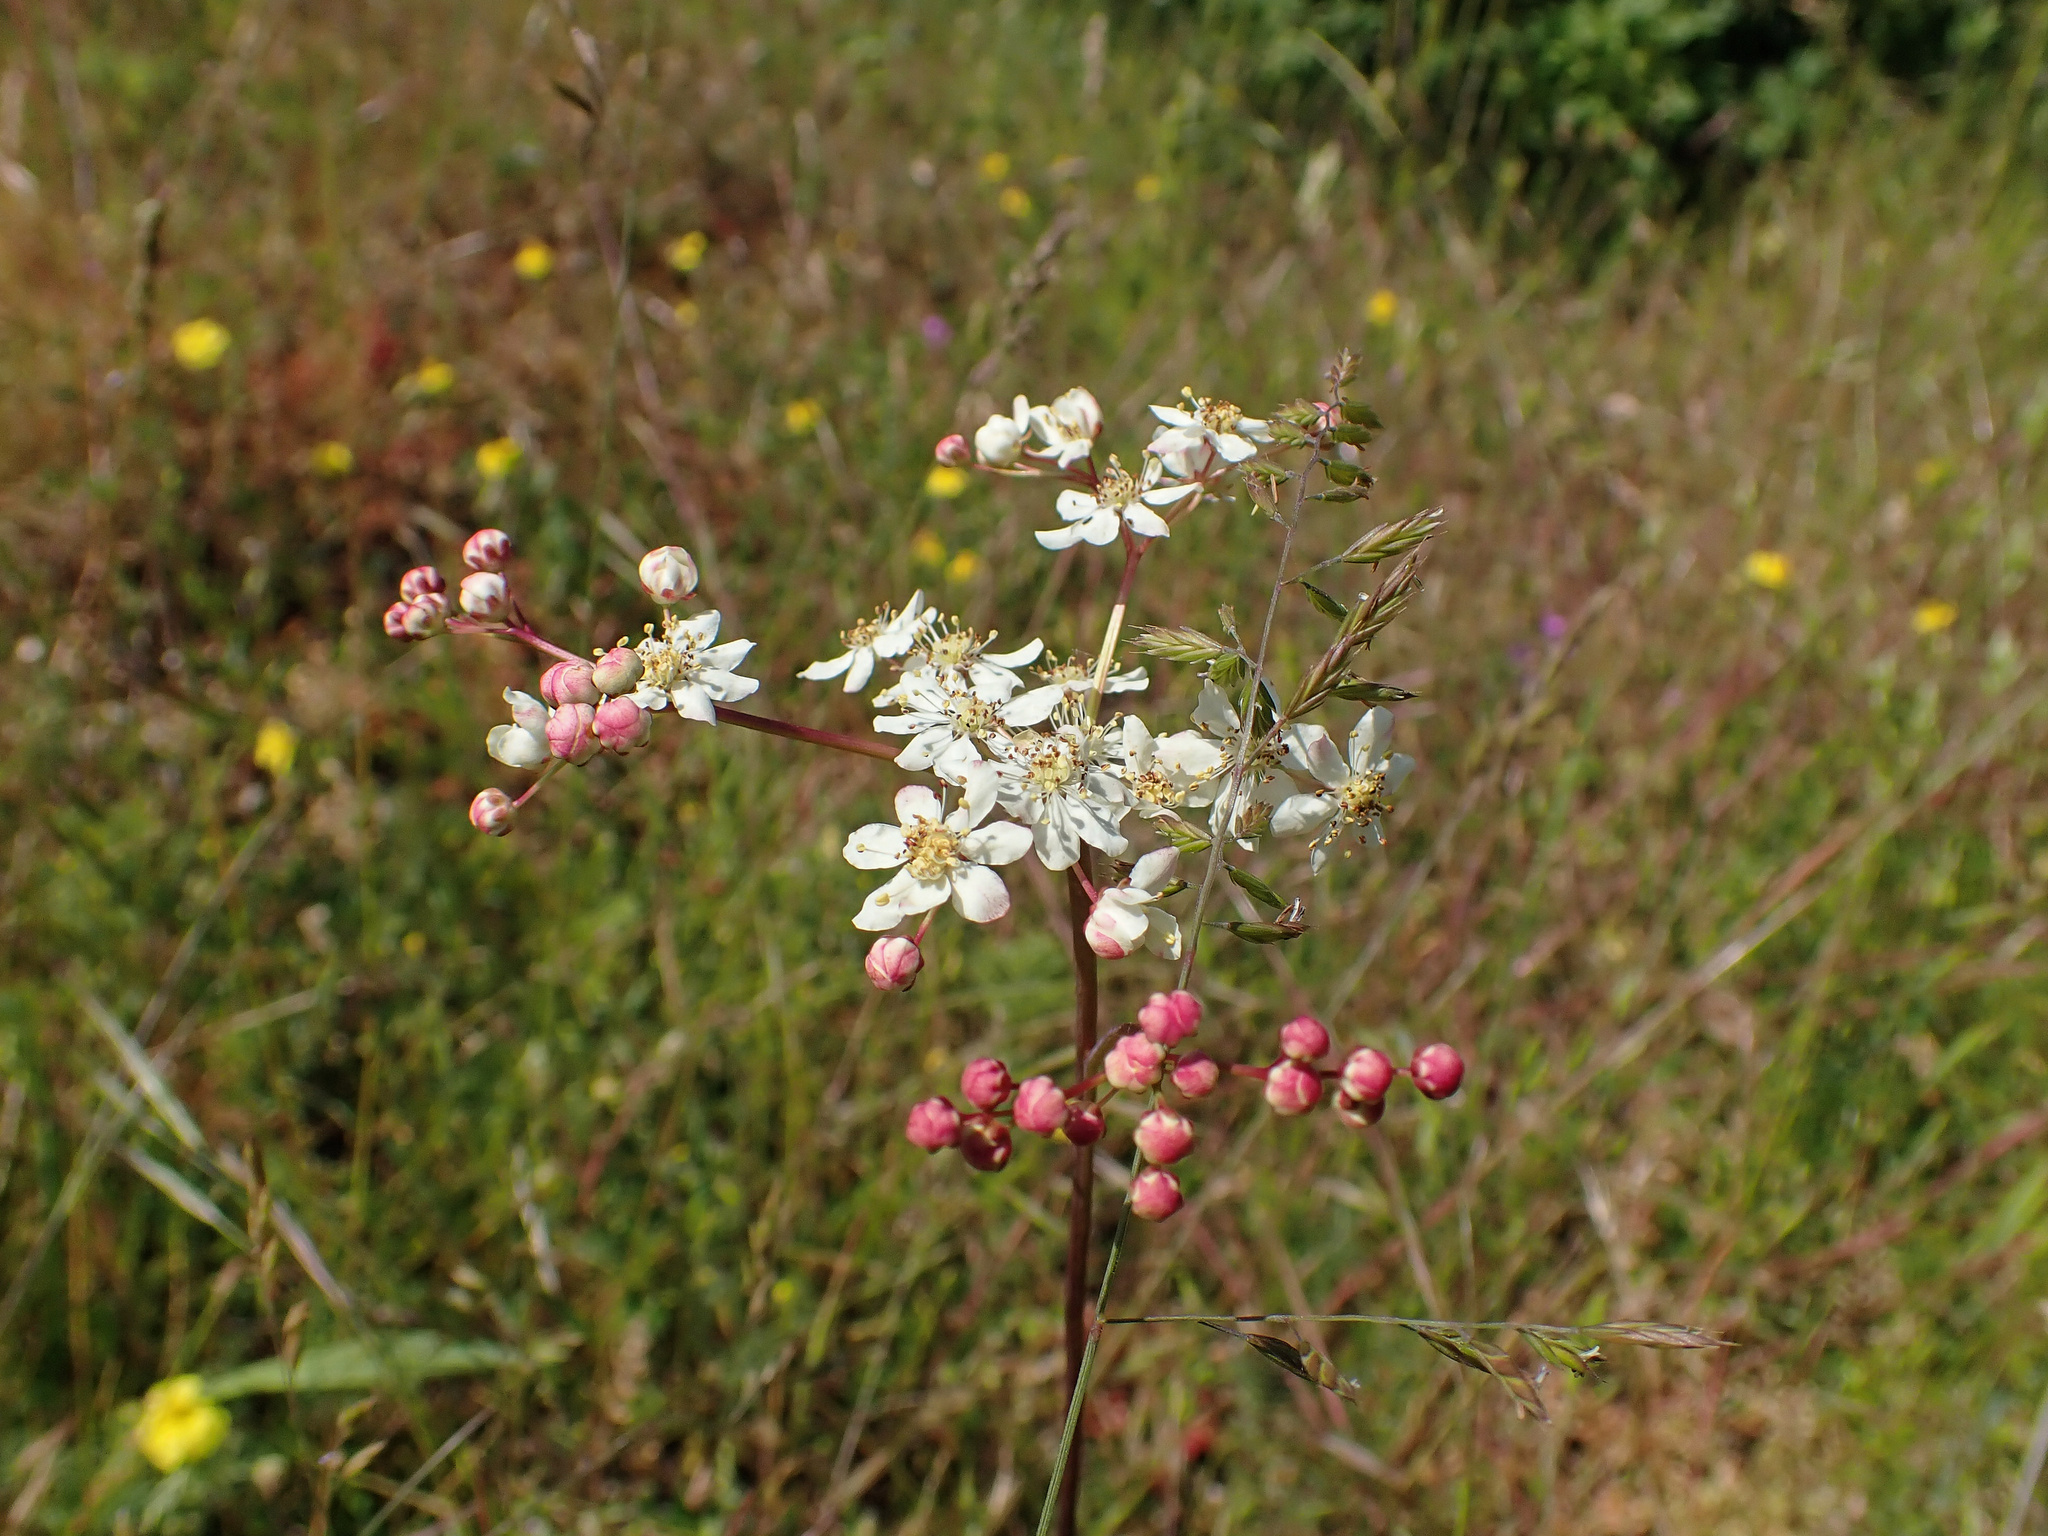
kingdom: Plantae
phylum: Tracheophyta
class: Magnoliopsida
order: Rosales
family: Rosaceae
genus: Filipendula
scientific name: Filipendula vulgaris
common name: Dropwort
